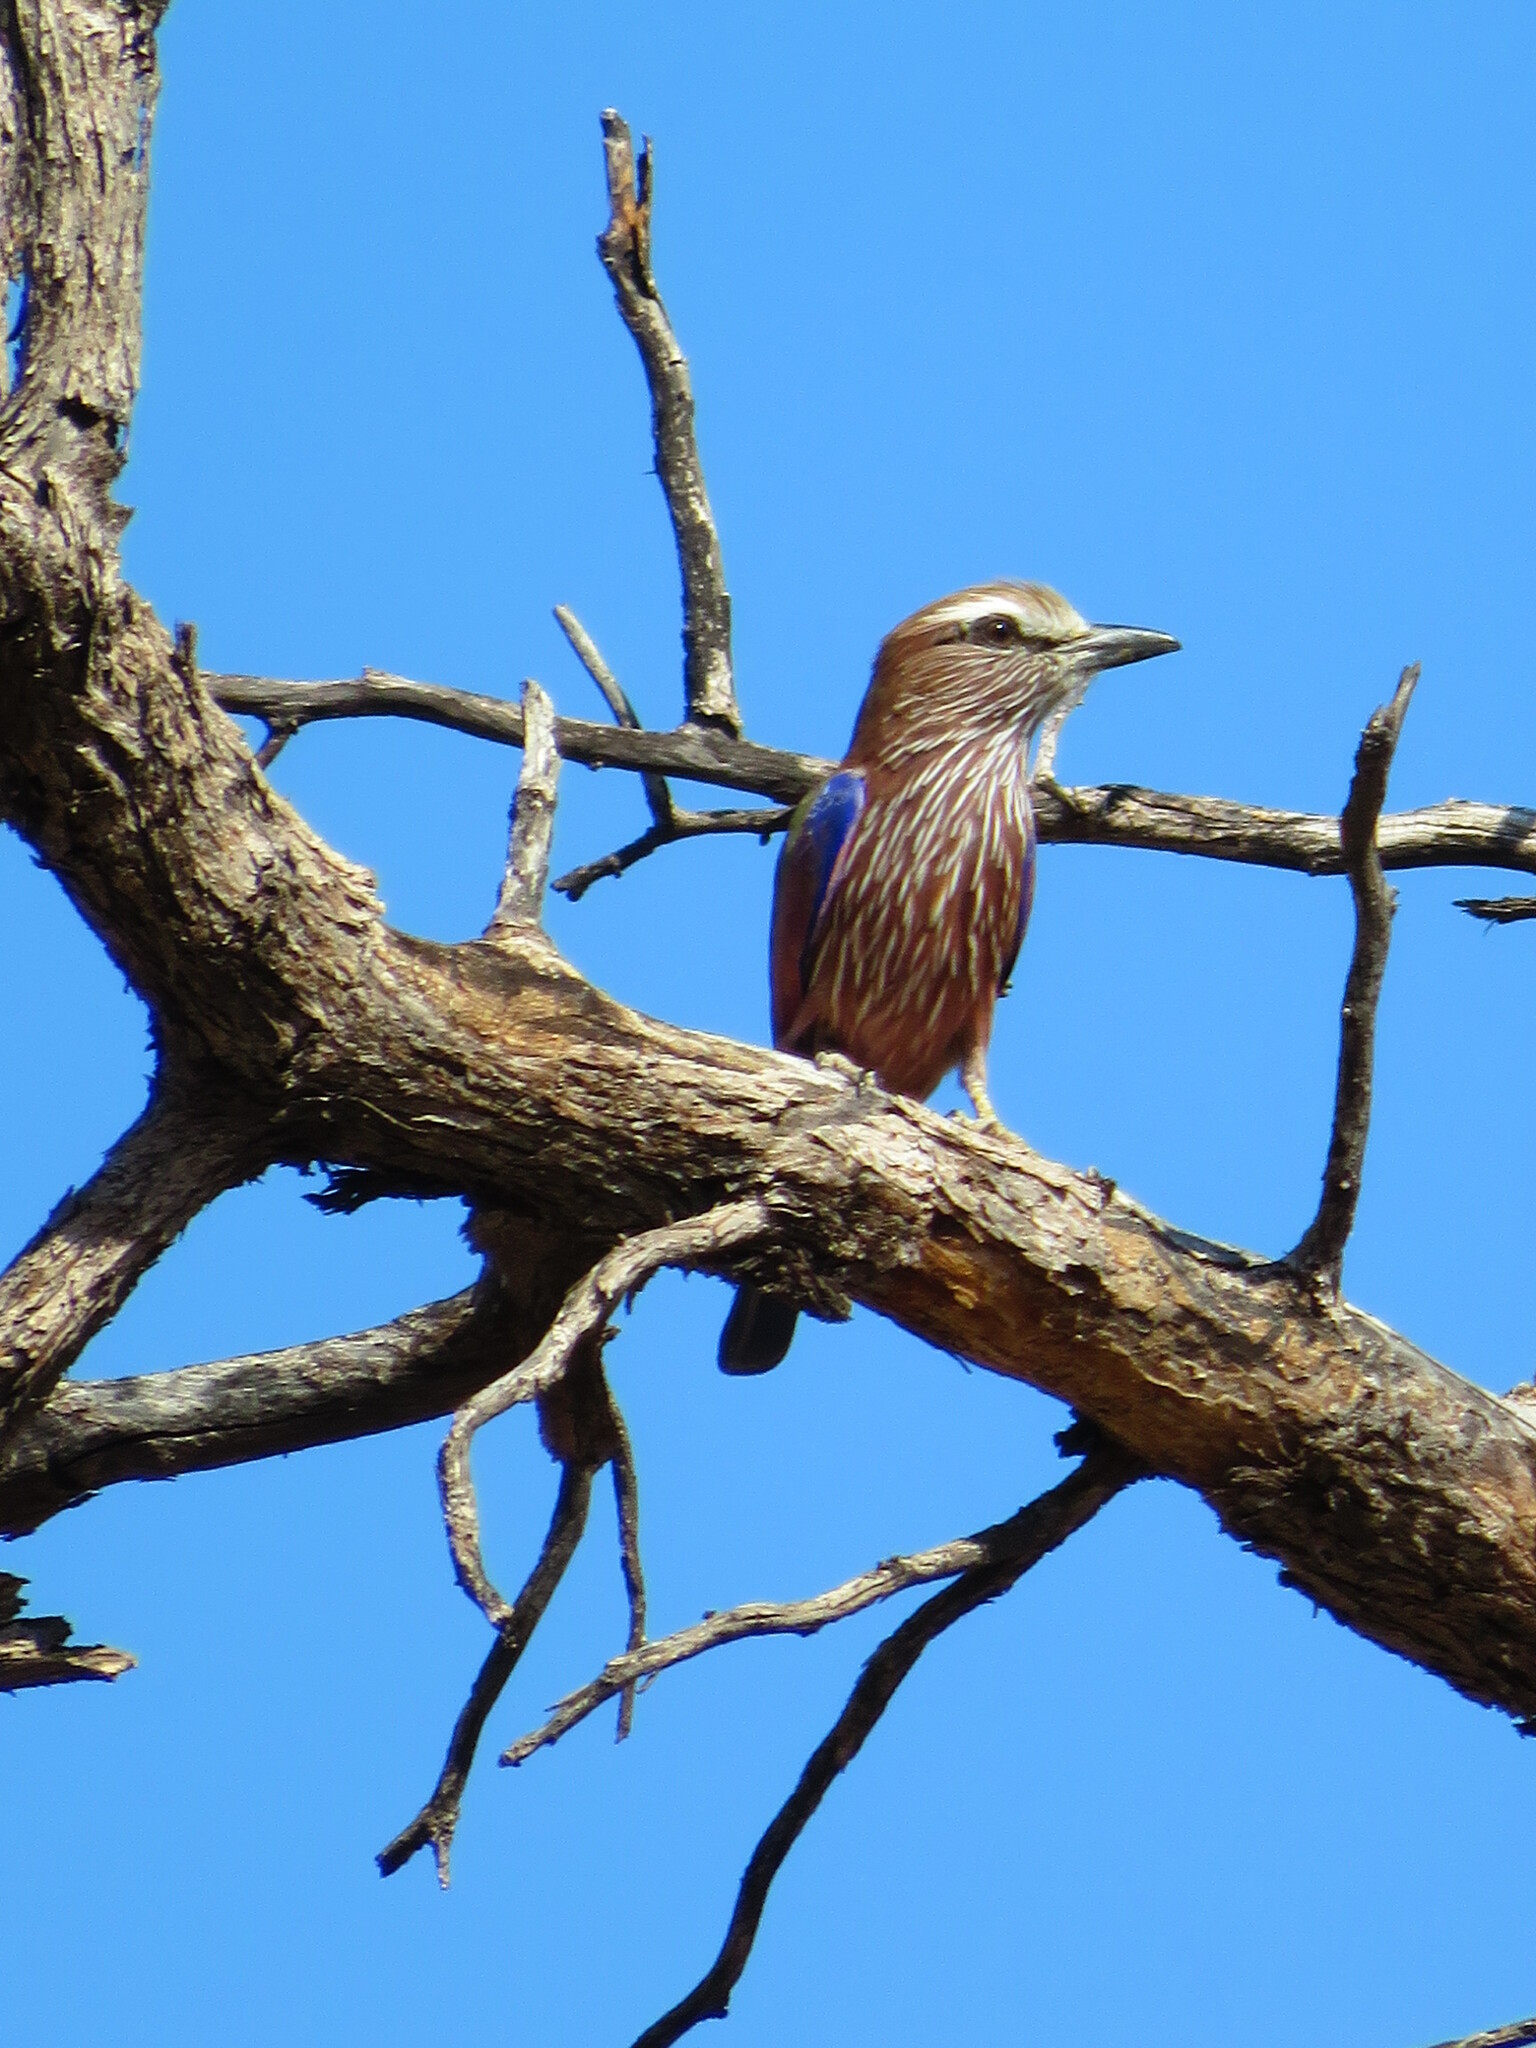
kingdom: Animalia
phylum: Chordata
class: Aves
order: Coraciiformes
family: Coraciidae
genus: Coracias
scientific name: Coracias naevius
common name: Purple roller
